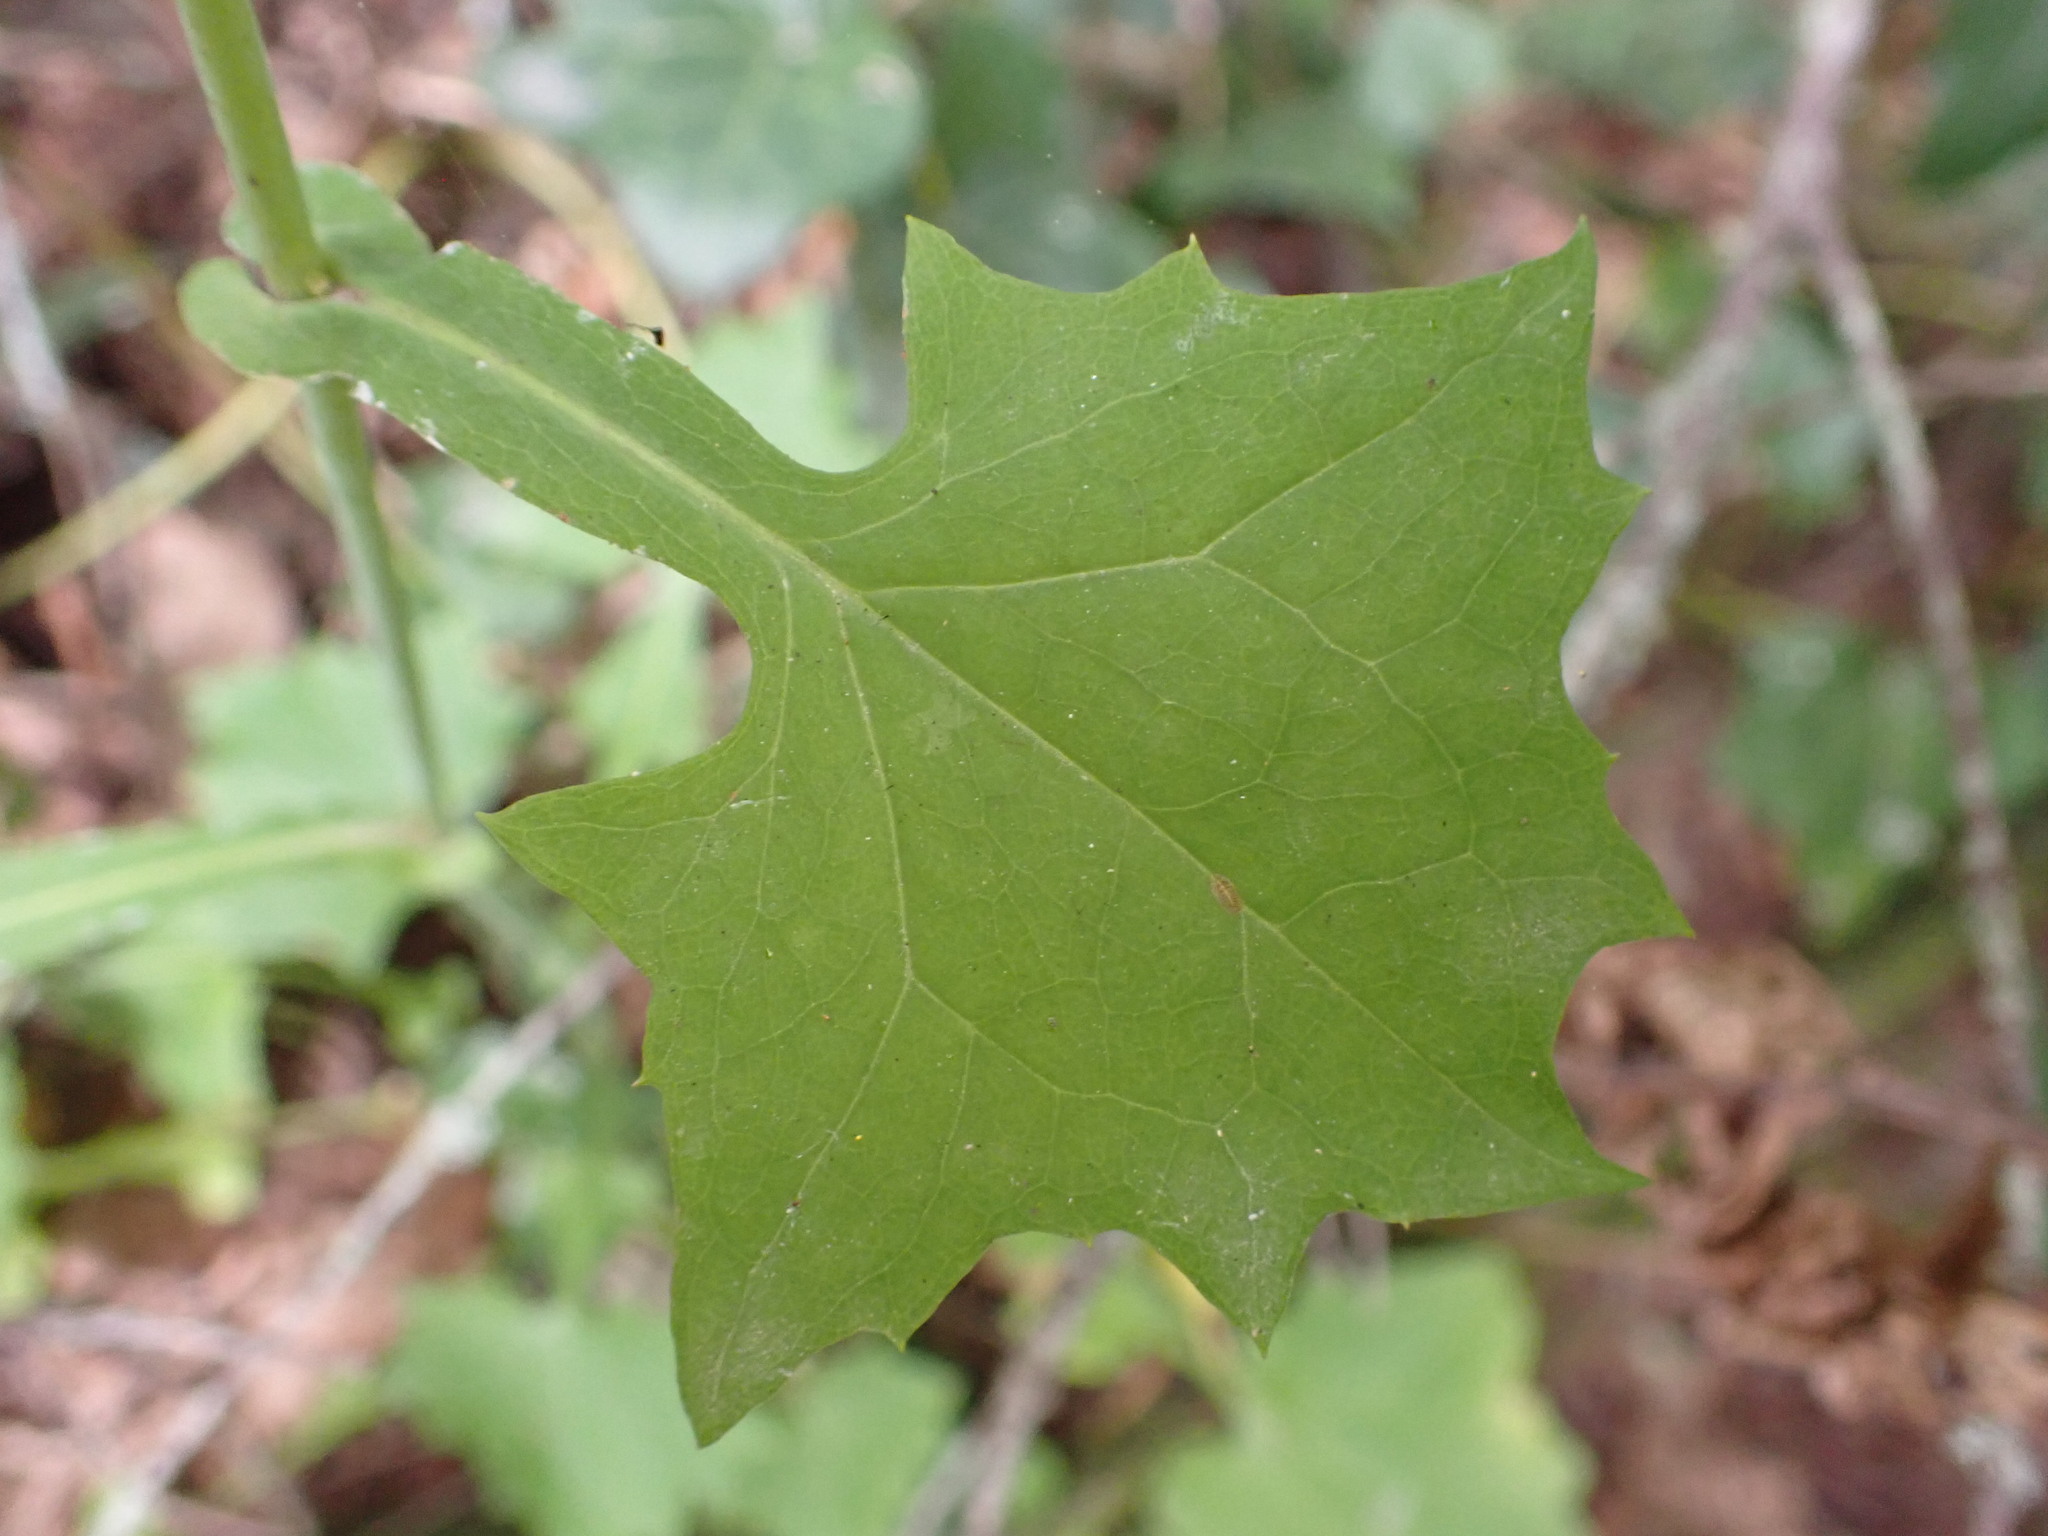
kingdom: Plantae
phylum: Tracheophyta
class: Magnoliopsida
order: Asterales
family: Asteraceae
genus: Mycelis
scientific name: Mycelis muralis
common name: Wall lettuce
